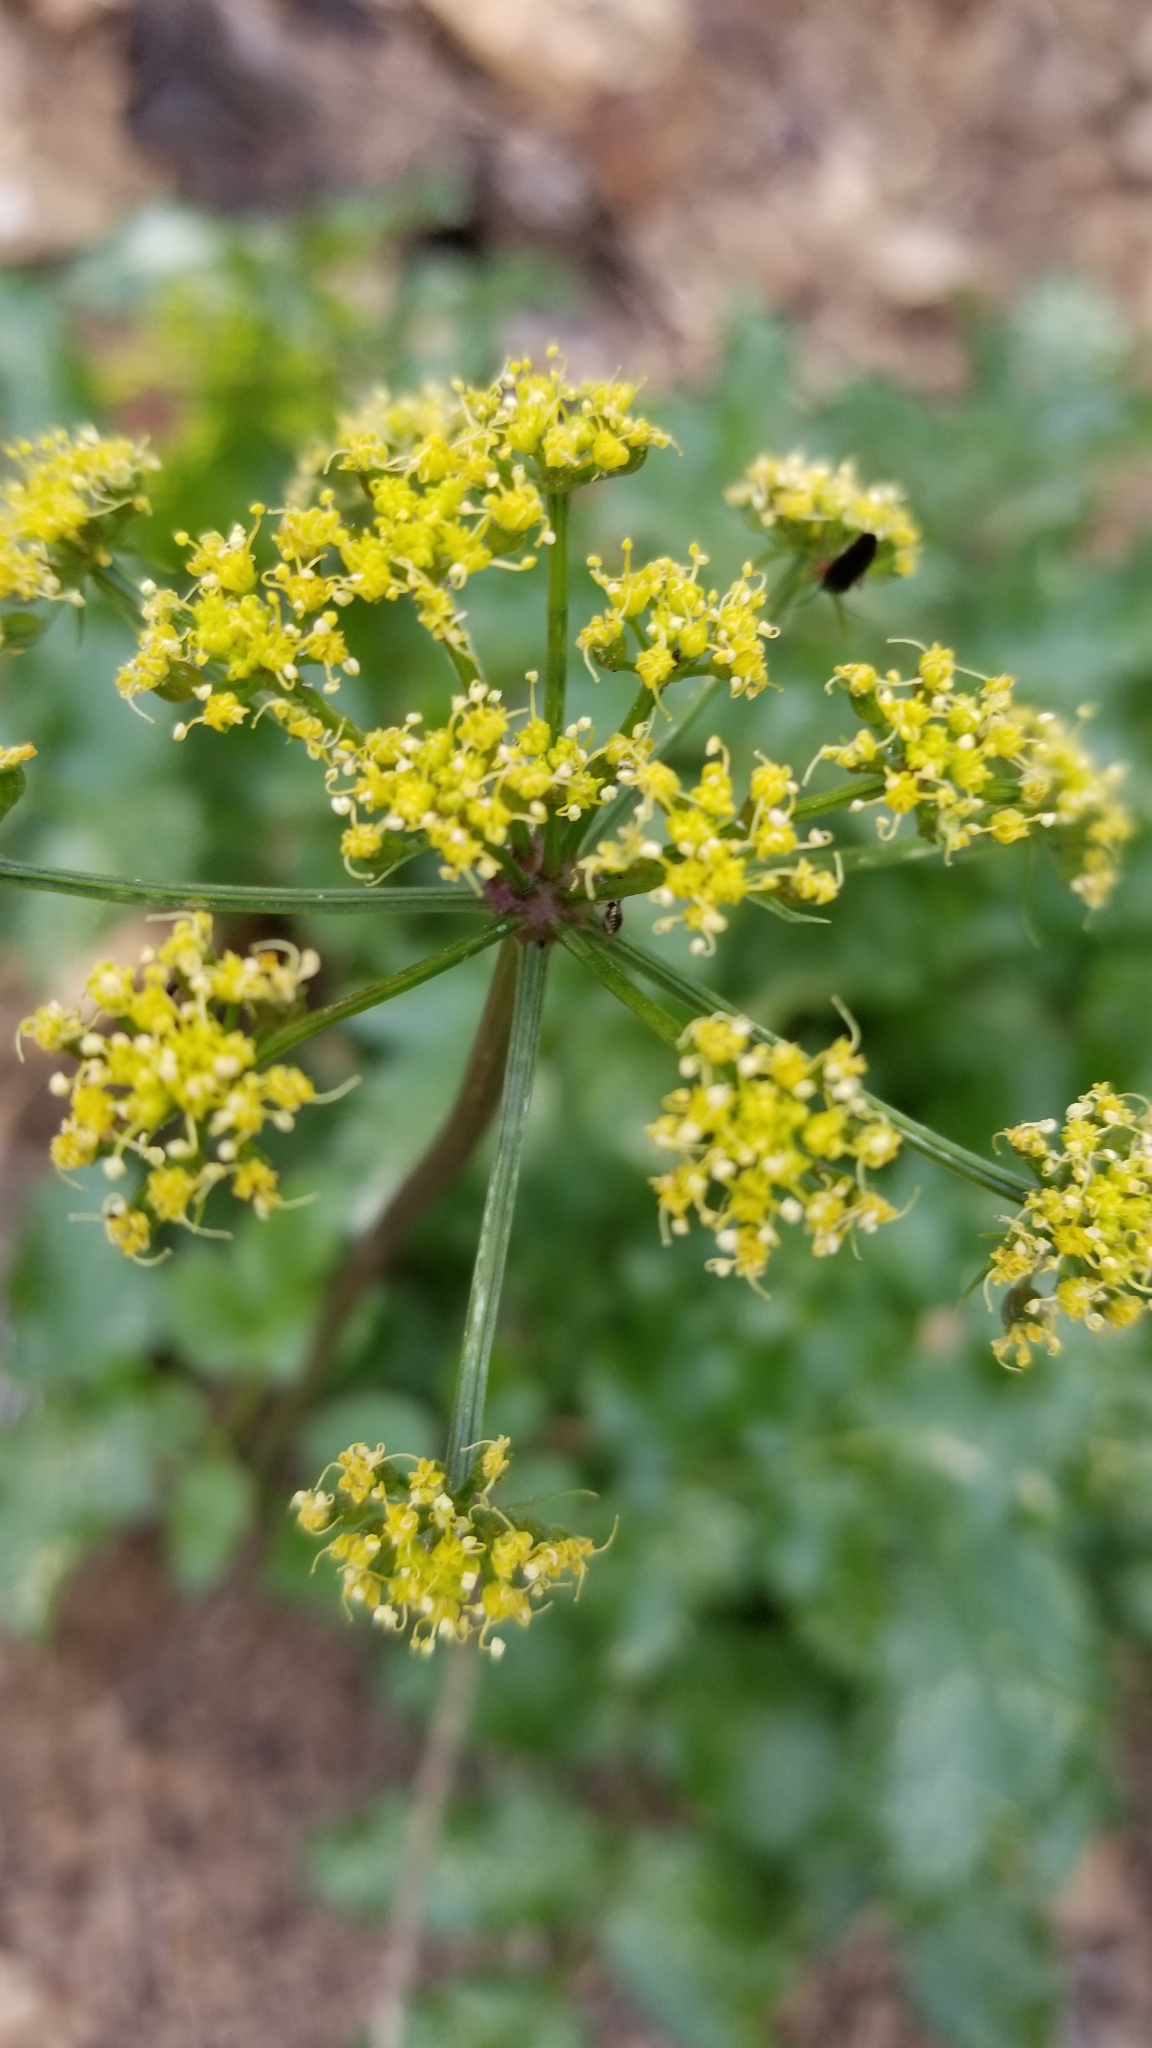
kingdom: Plantae
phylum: Tracheophyta
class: Magnoliopsida
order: Apiales
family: Apiaceae
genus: Tauschia
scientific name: Tauschia arguta
